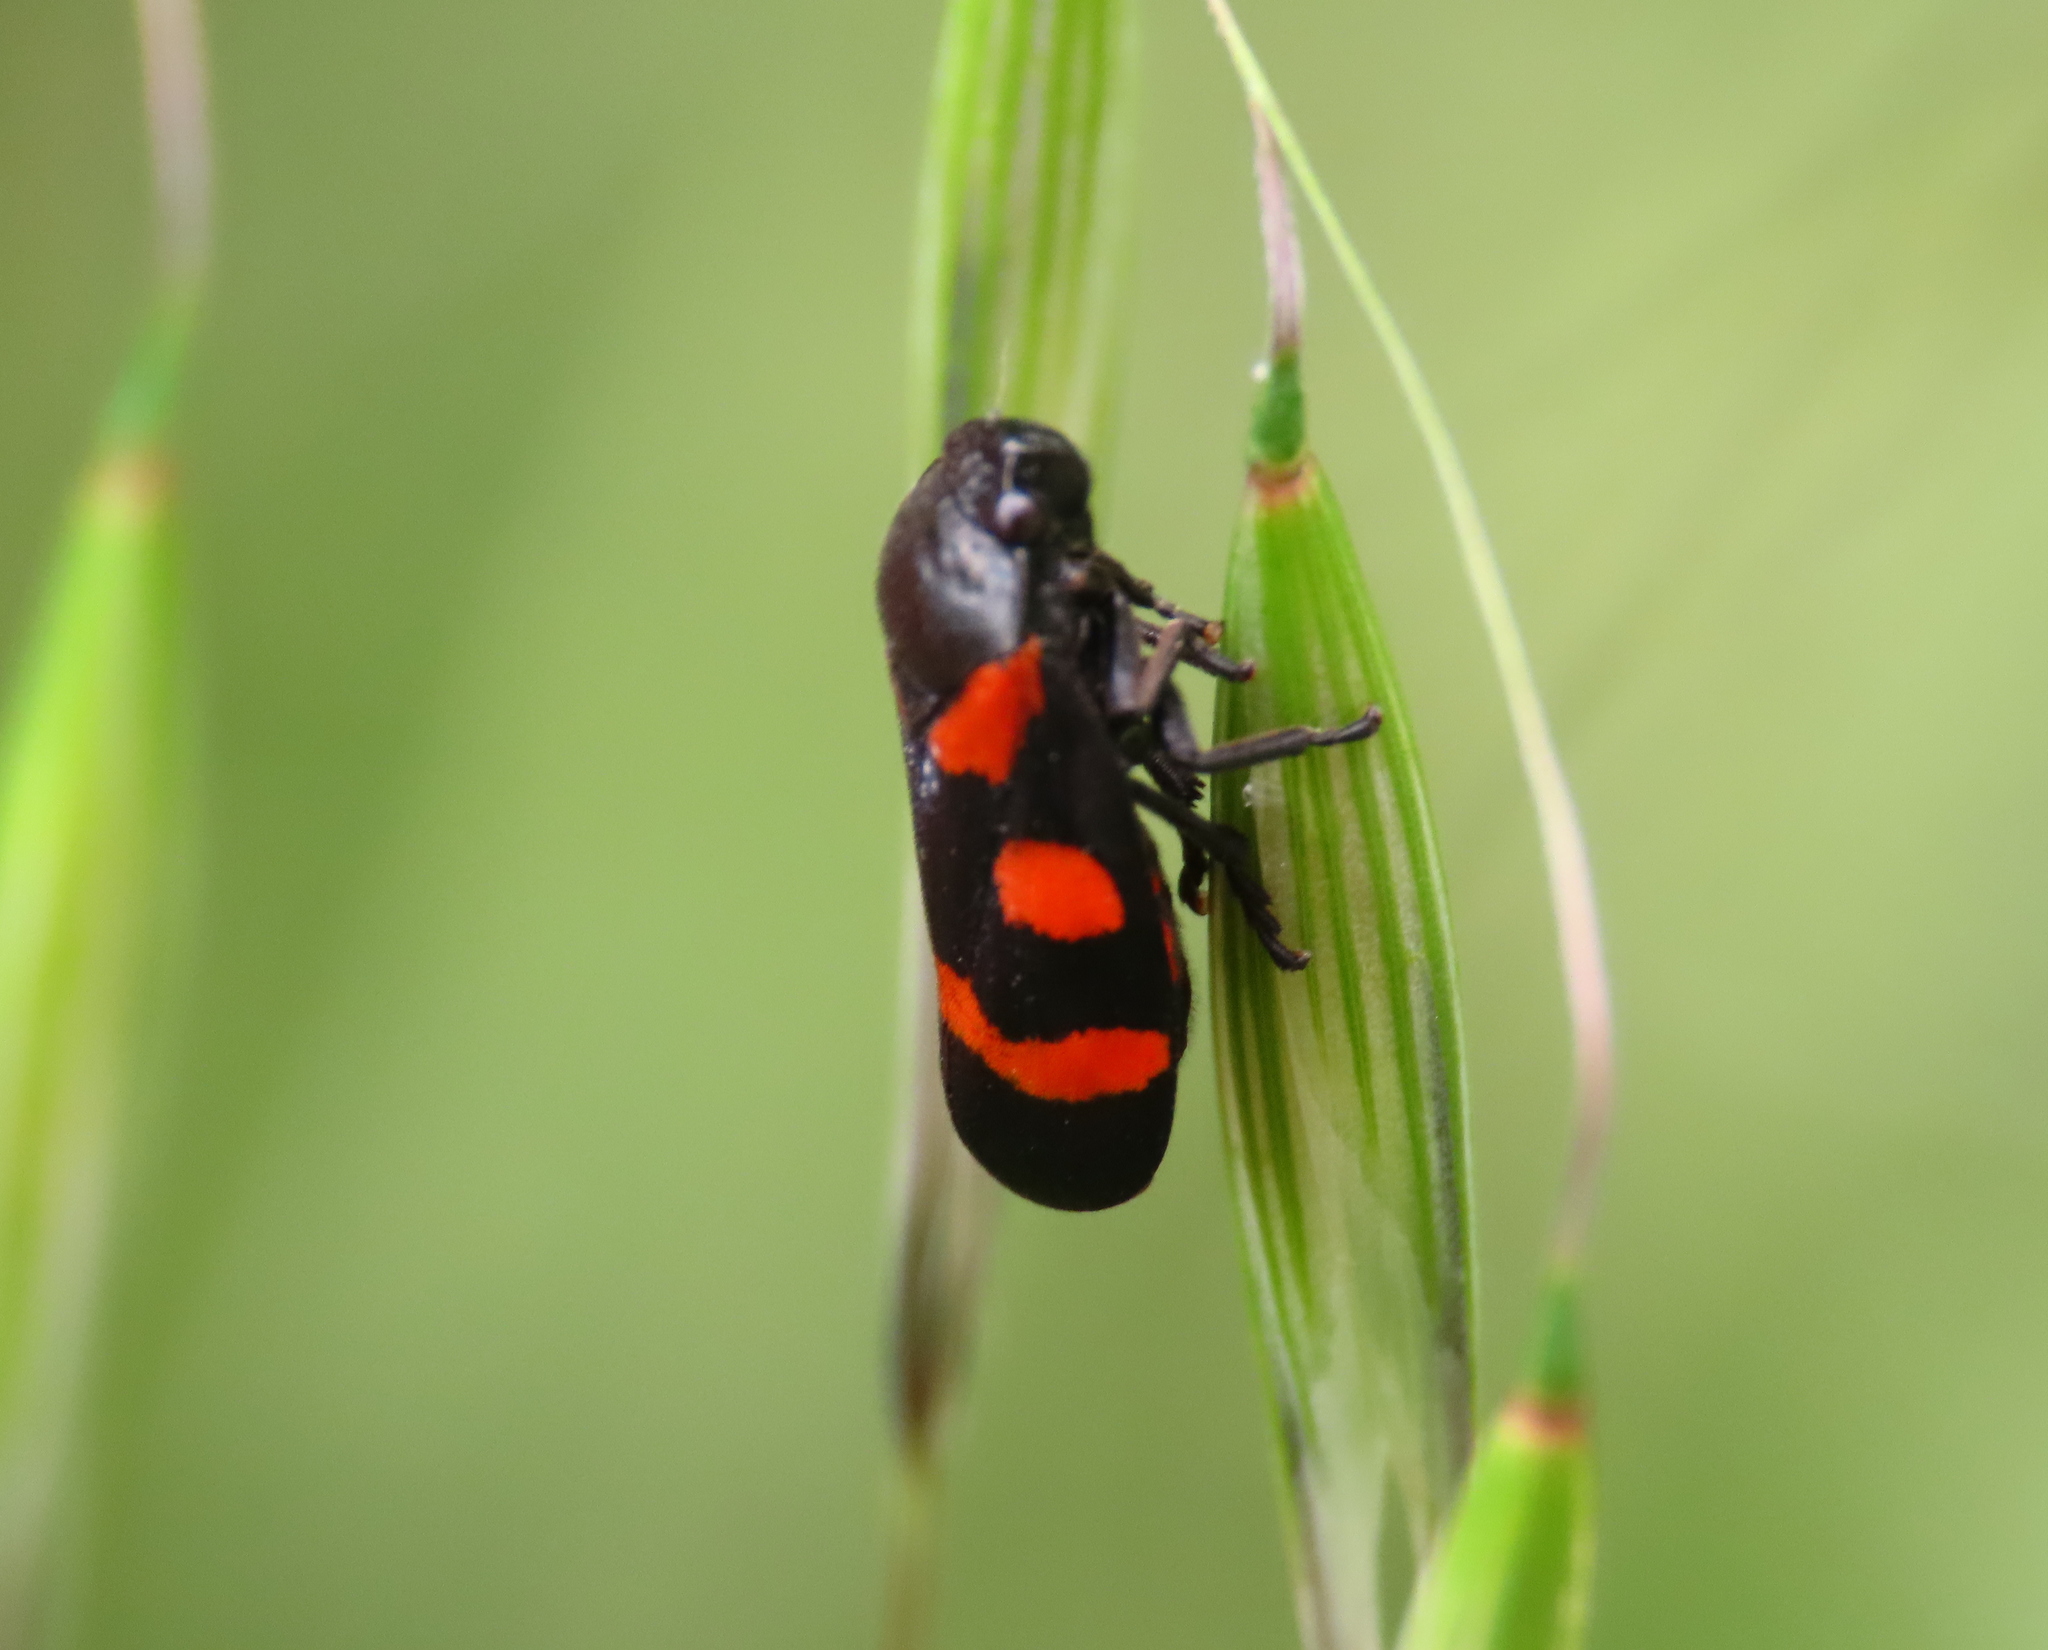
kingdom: Animalia
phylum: Arthropoda
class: Insecta
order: Hemiptera
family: Cercopidae
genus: Cercopis
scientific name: Cercopis sanguinolenta
